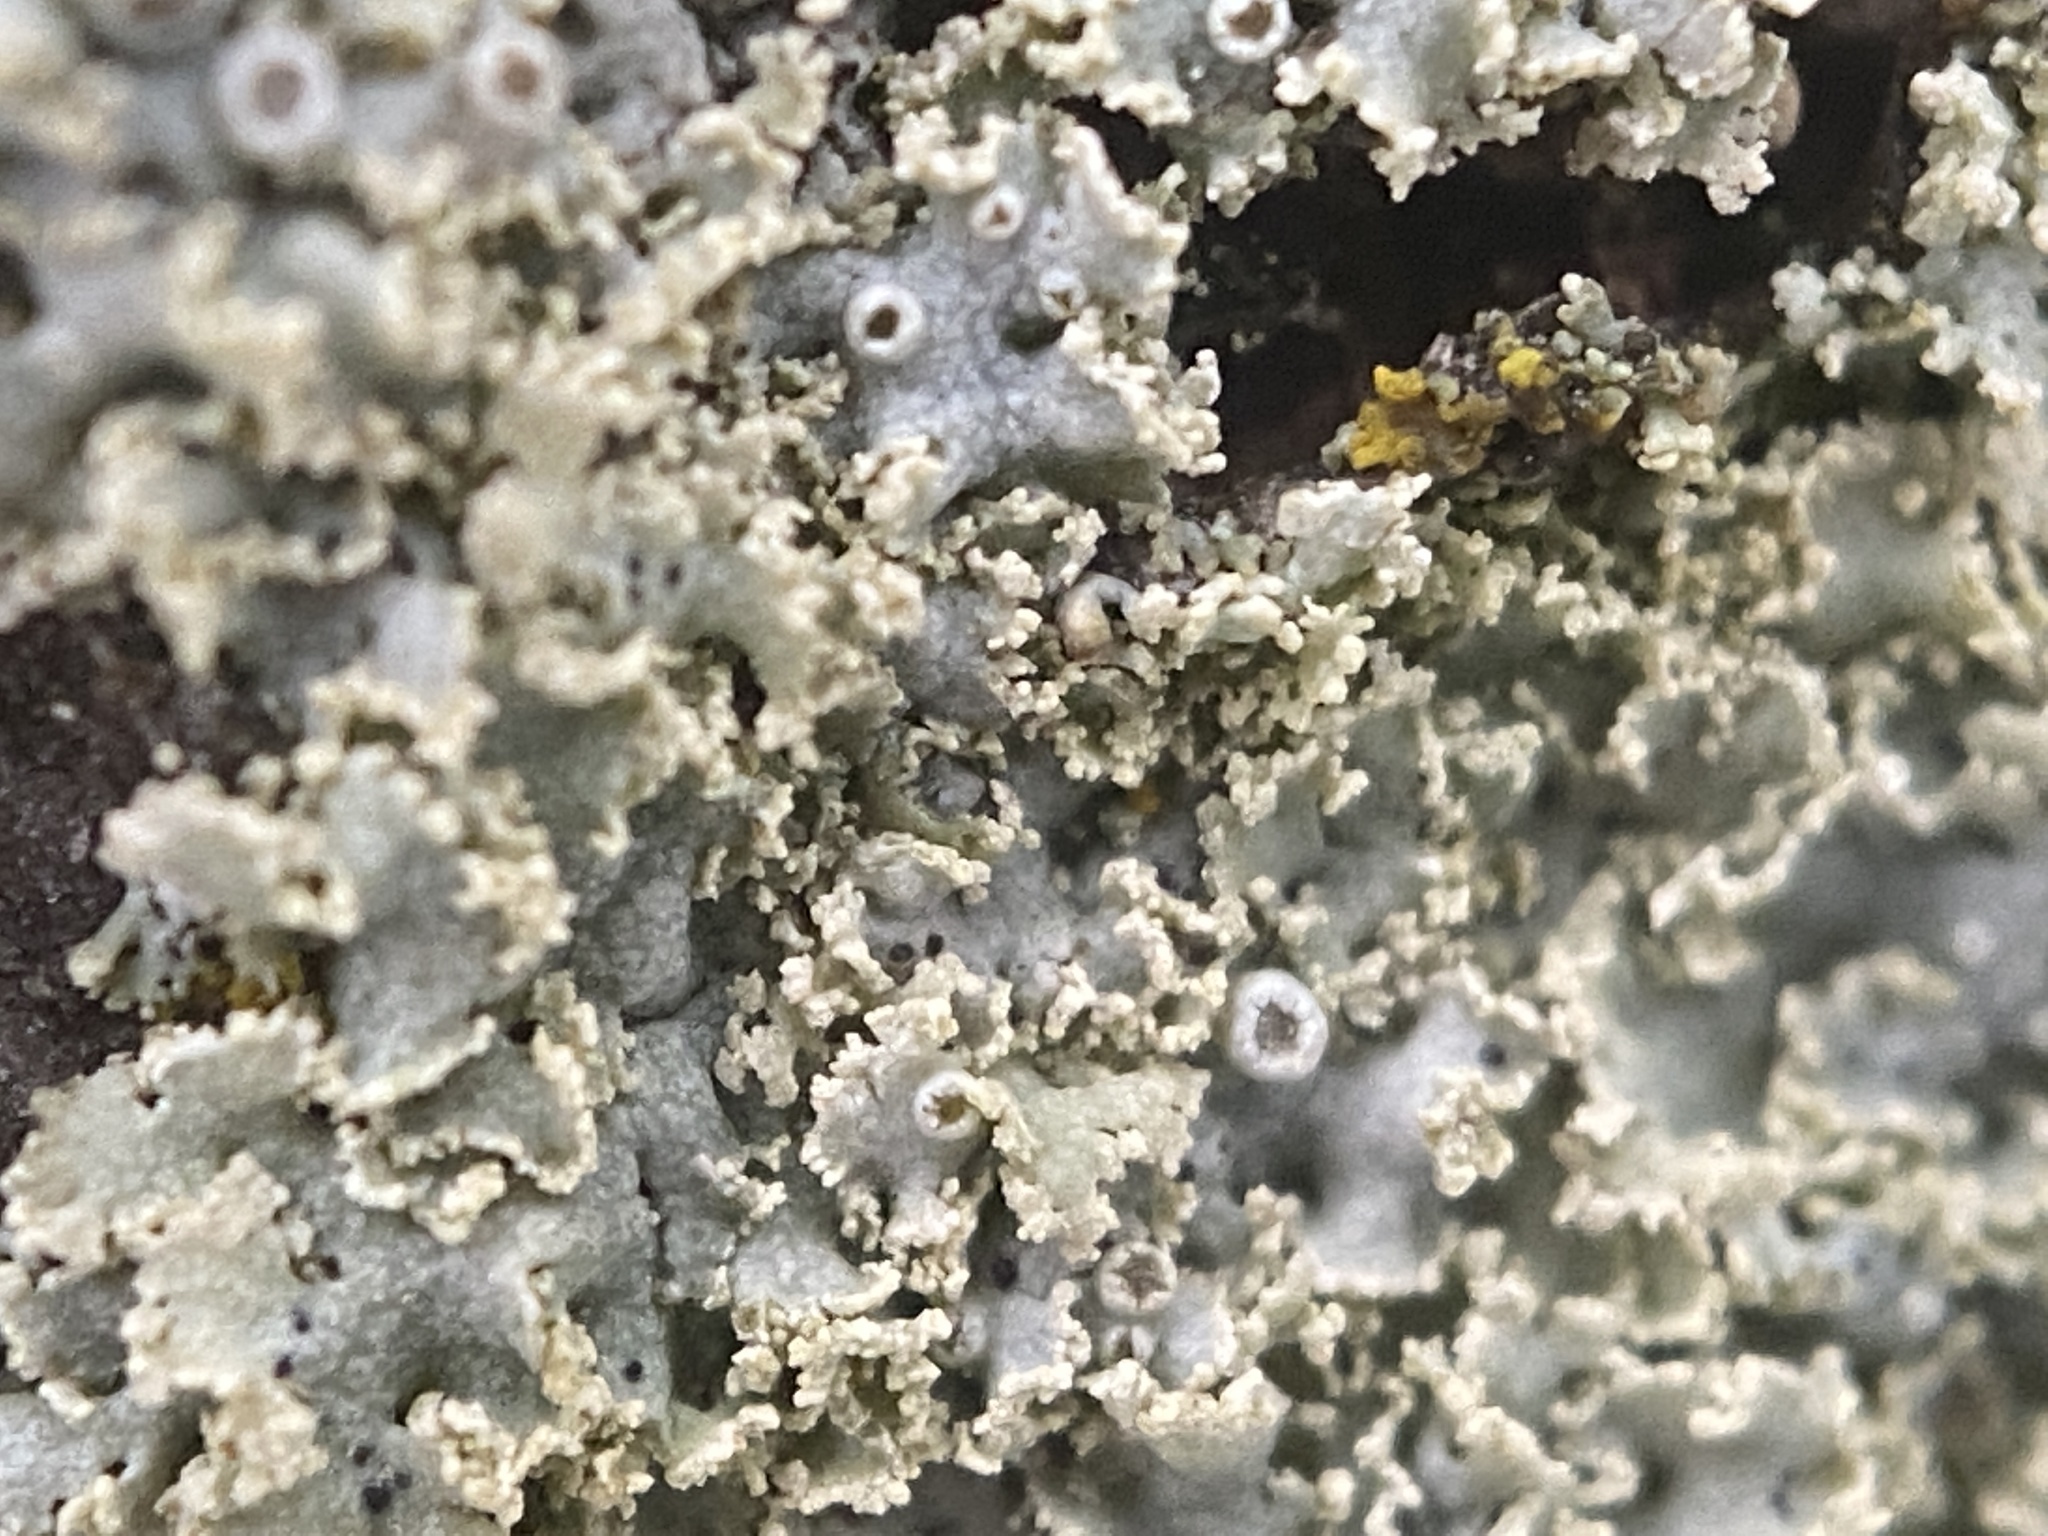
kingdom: Fungi
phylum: Ascomycota
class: Lecanoromycetes
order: Caliciales
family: Physciaceae
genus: Physcia
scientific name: Physcia millegrana
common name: Rosette lichen
